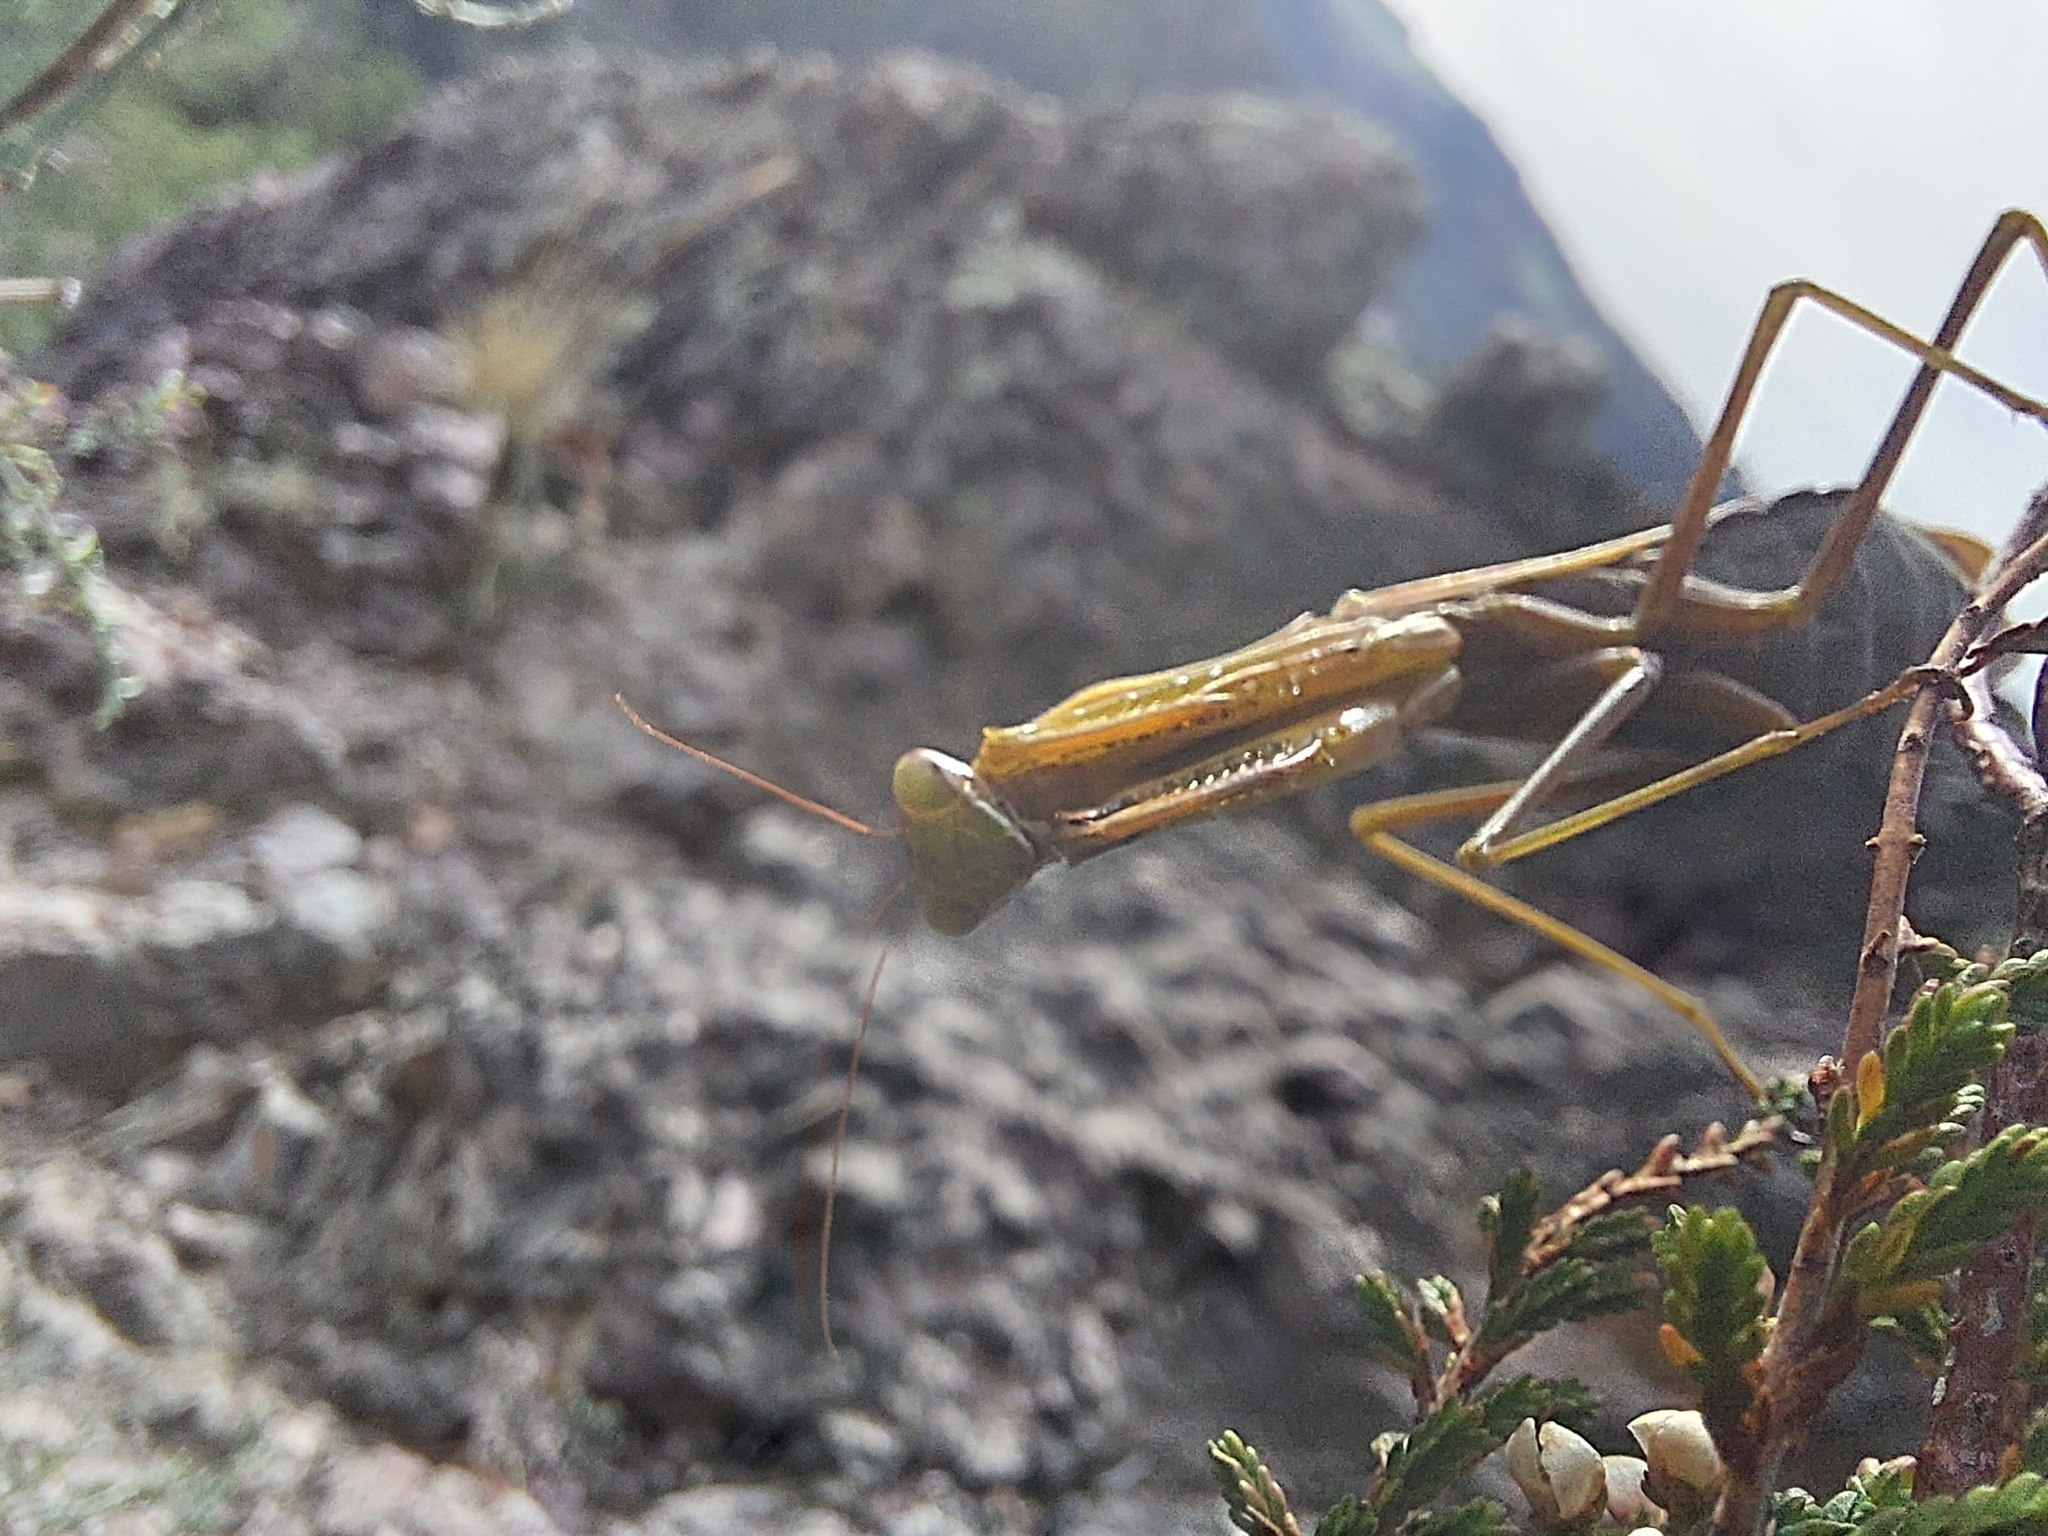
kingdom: Animalia
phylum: Arthropoda
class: Insecta
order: Mantodea
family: Mantidae
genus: Mantis
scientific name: Mantis religiosa
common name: Praying mantis
